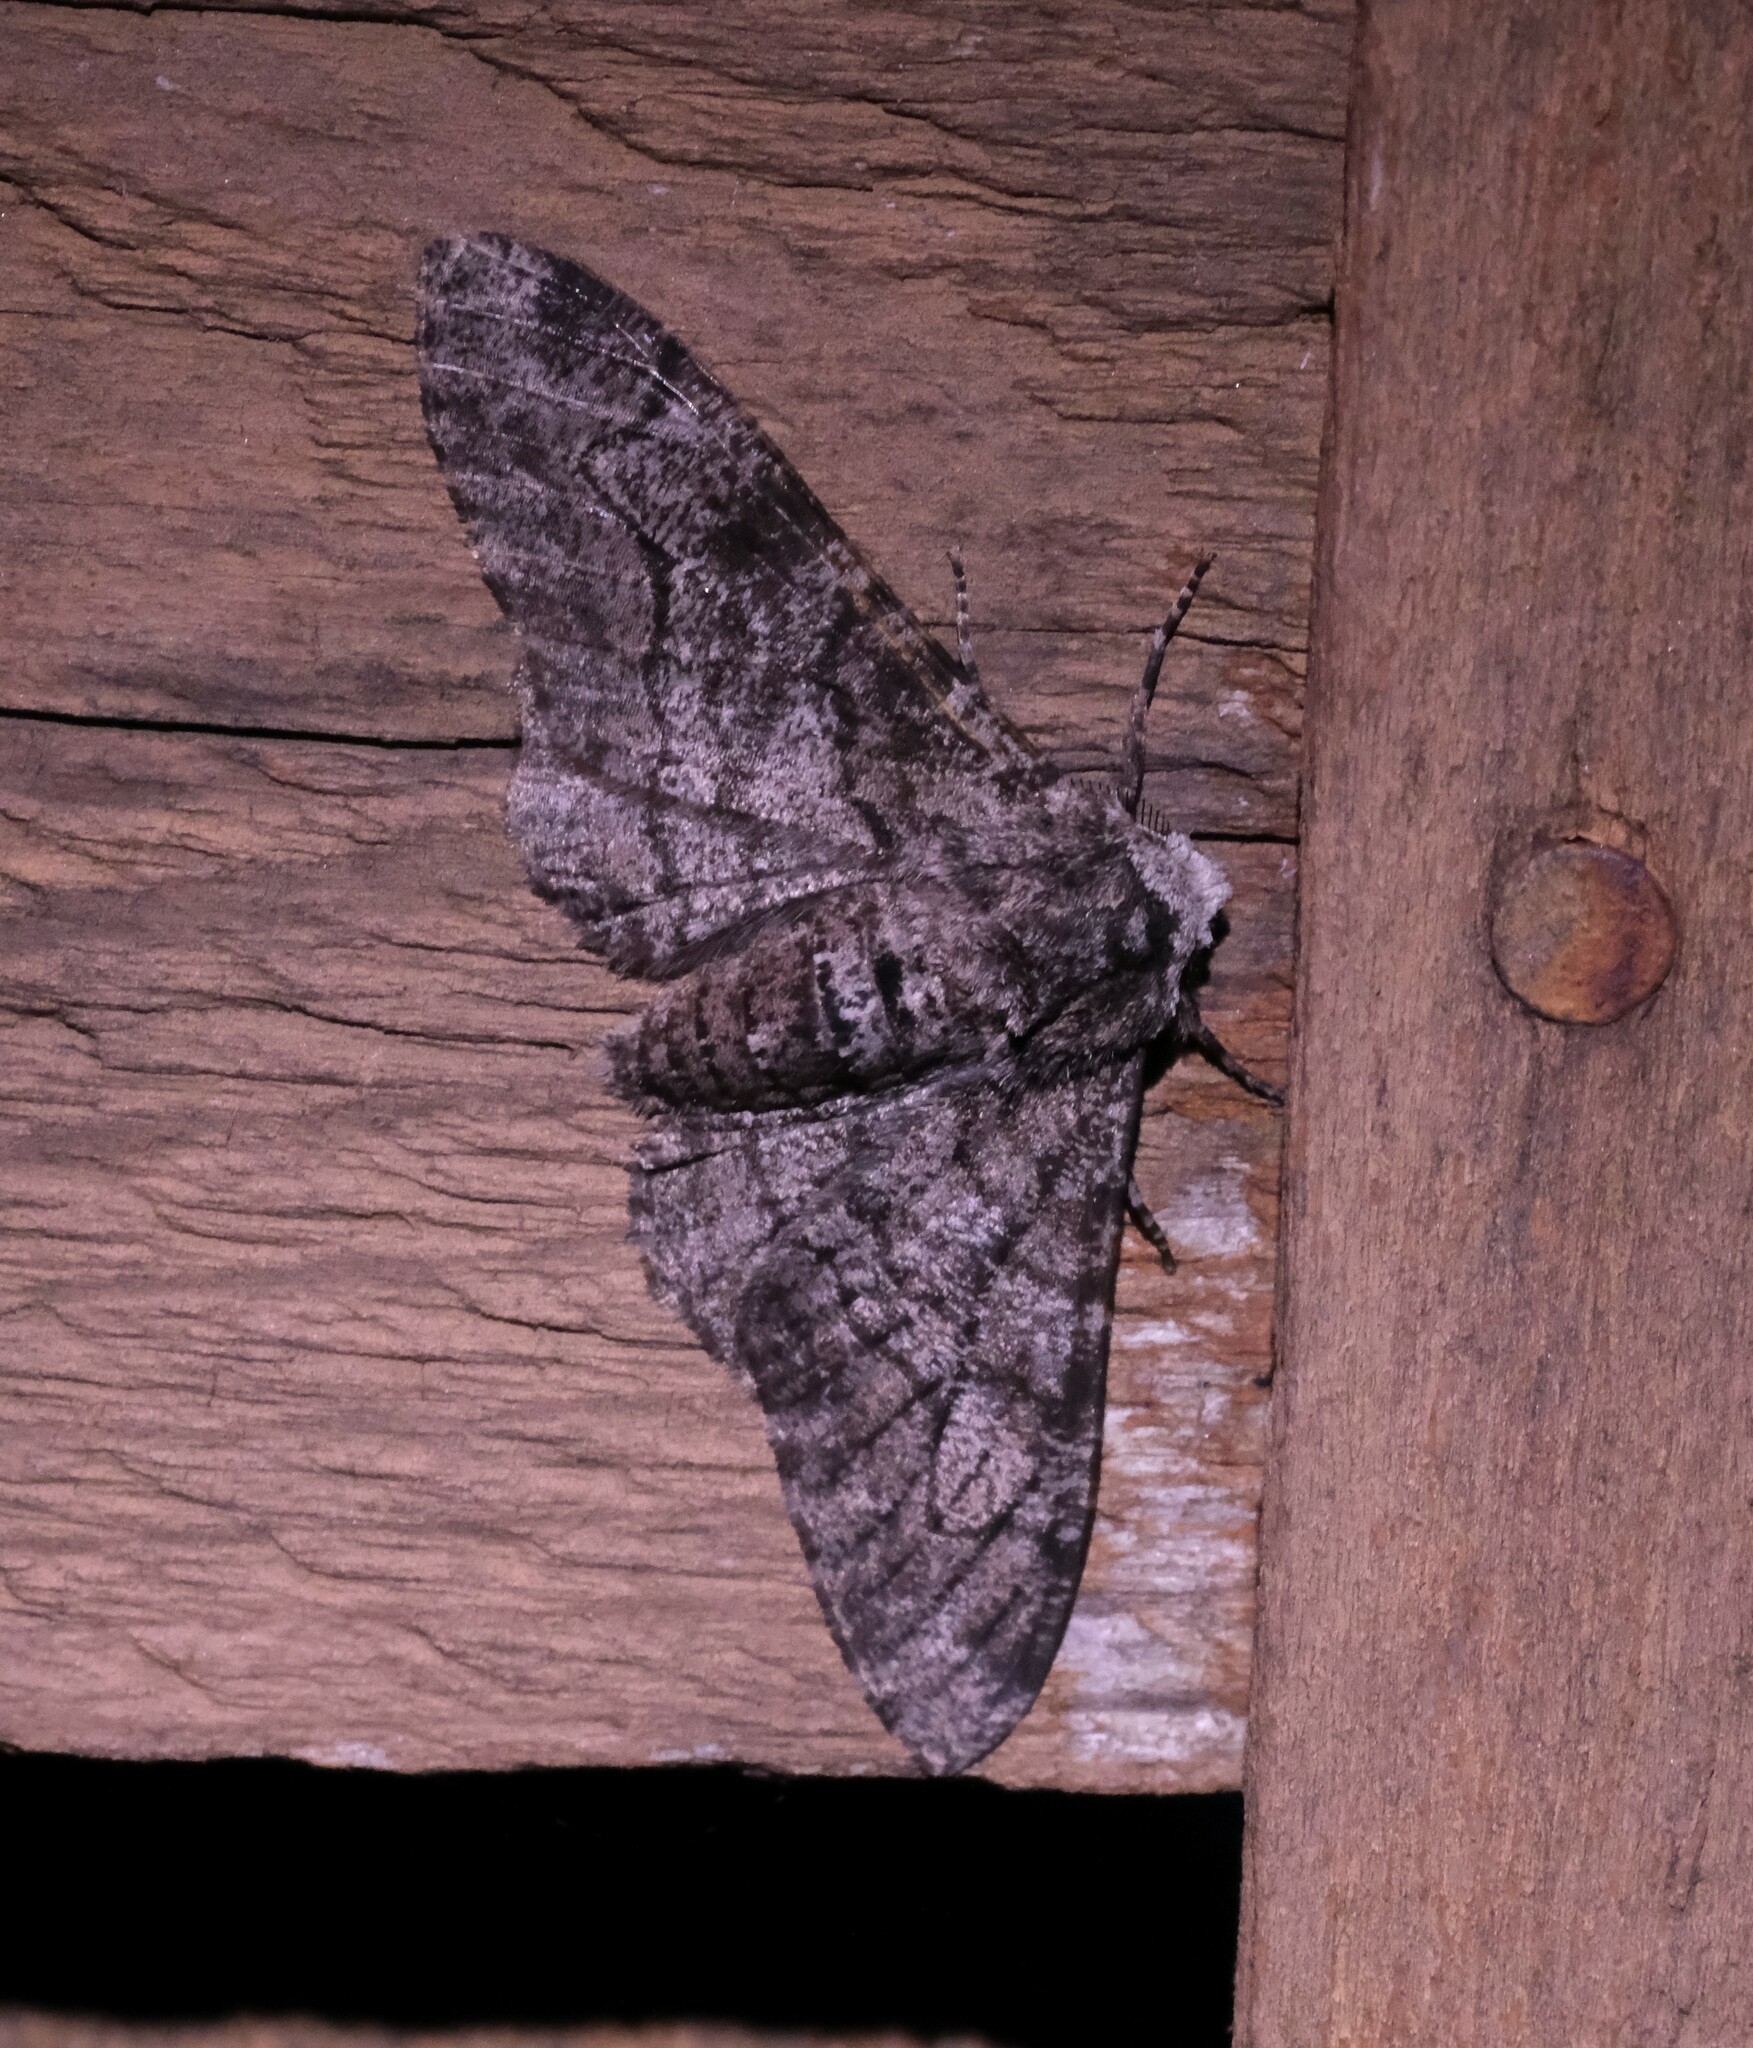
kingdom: Animalia
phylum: Arthropoda
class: Insecta
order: Lepidoptera
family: Geometridae
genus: Biston
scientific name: Biston betularia
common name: Peppered moth
